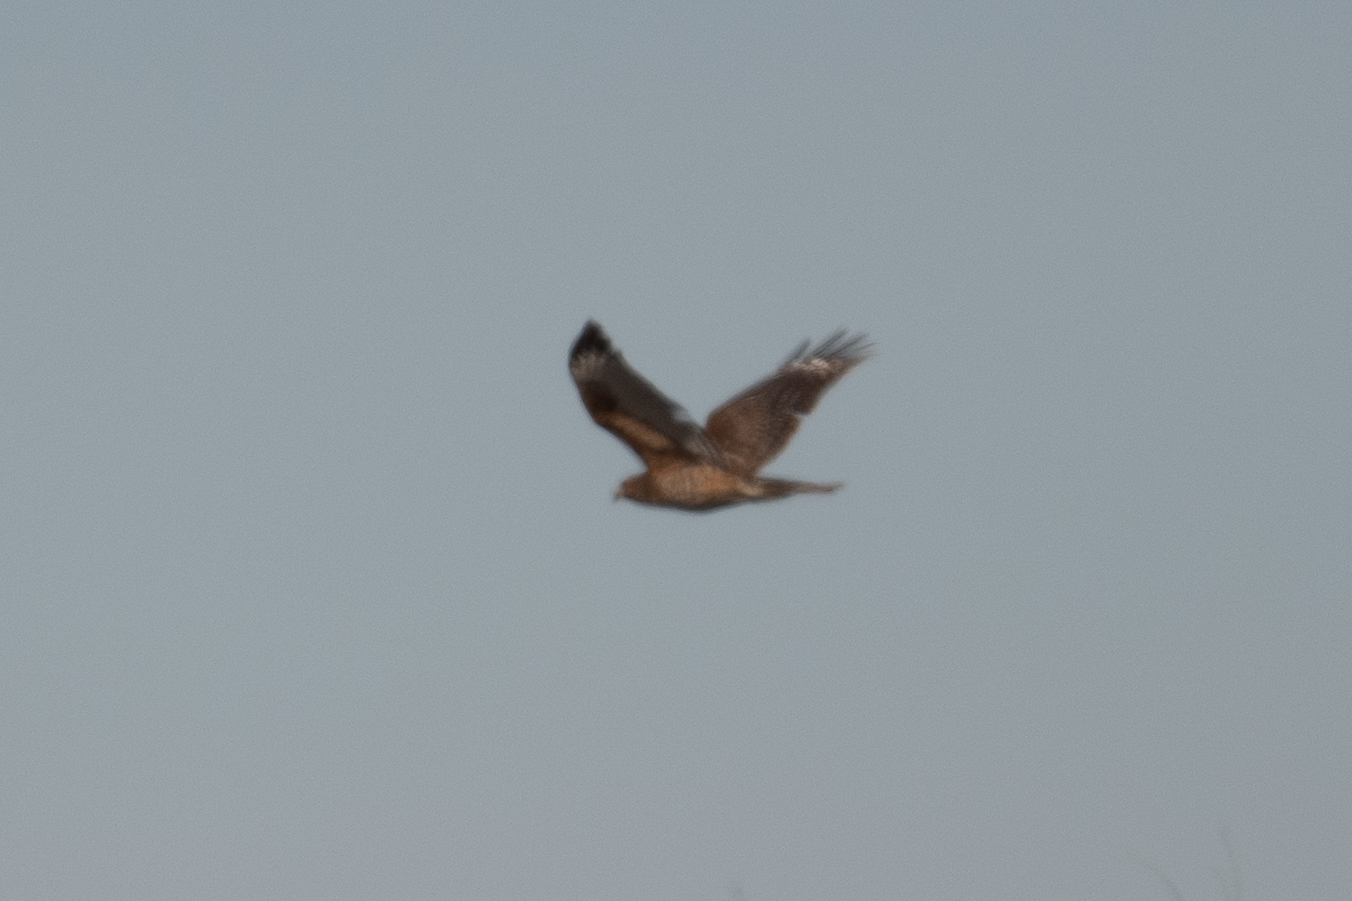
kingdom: Animalia
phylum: Chordata
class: Aves
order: Accipitriformes
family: Accipitridae
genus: Buteo
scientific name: Buteo lineatus
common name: Red-shouldered hawk
